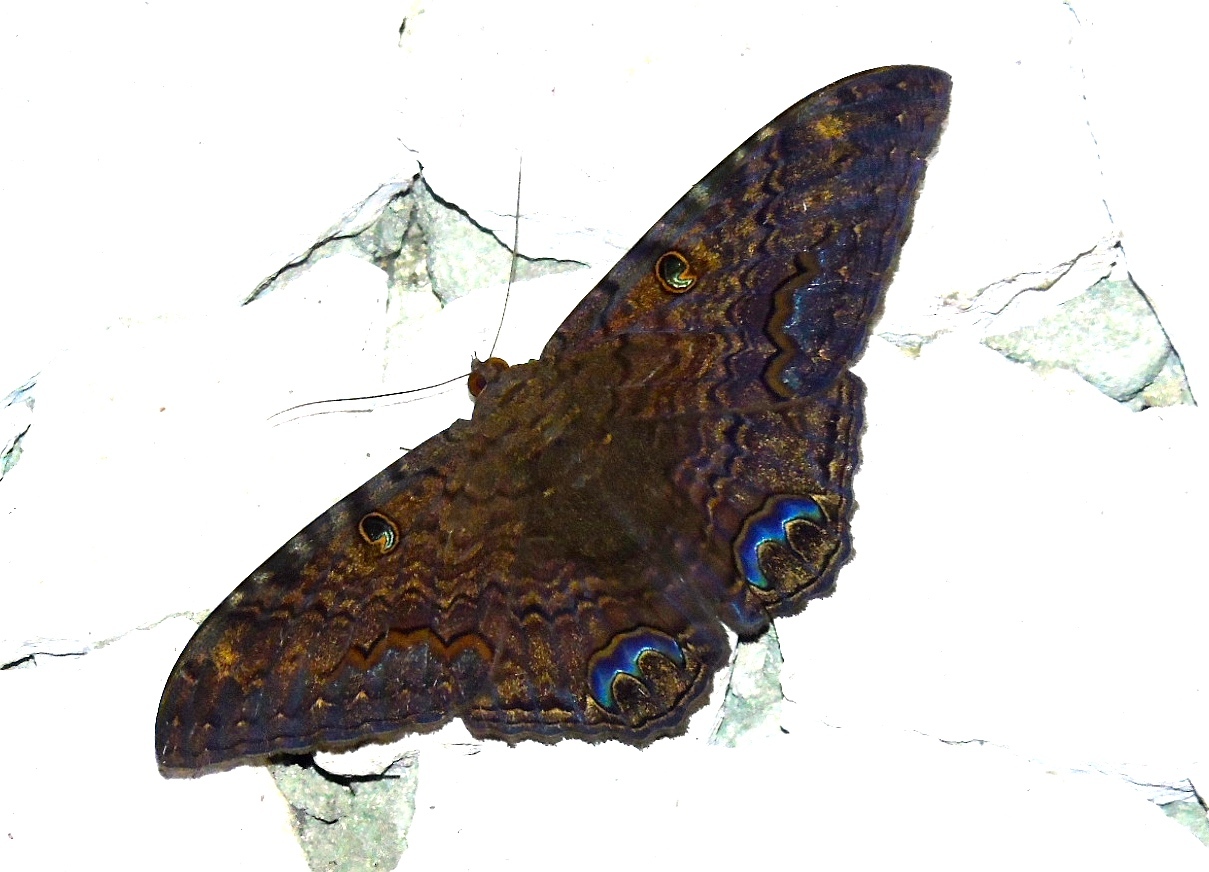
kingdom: Animalia
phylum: Arthropoda
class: Insecta
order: Lepidoptera
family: Erebidae
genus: Ascalapha
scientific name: Ascalapha odorata
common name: Black witch
